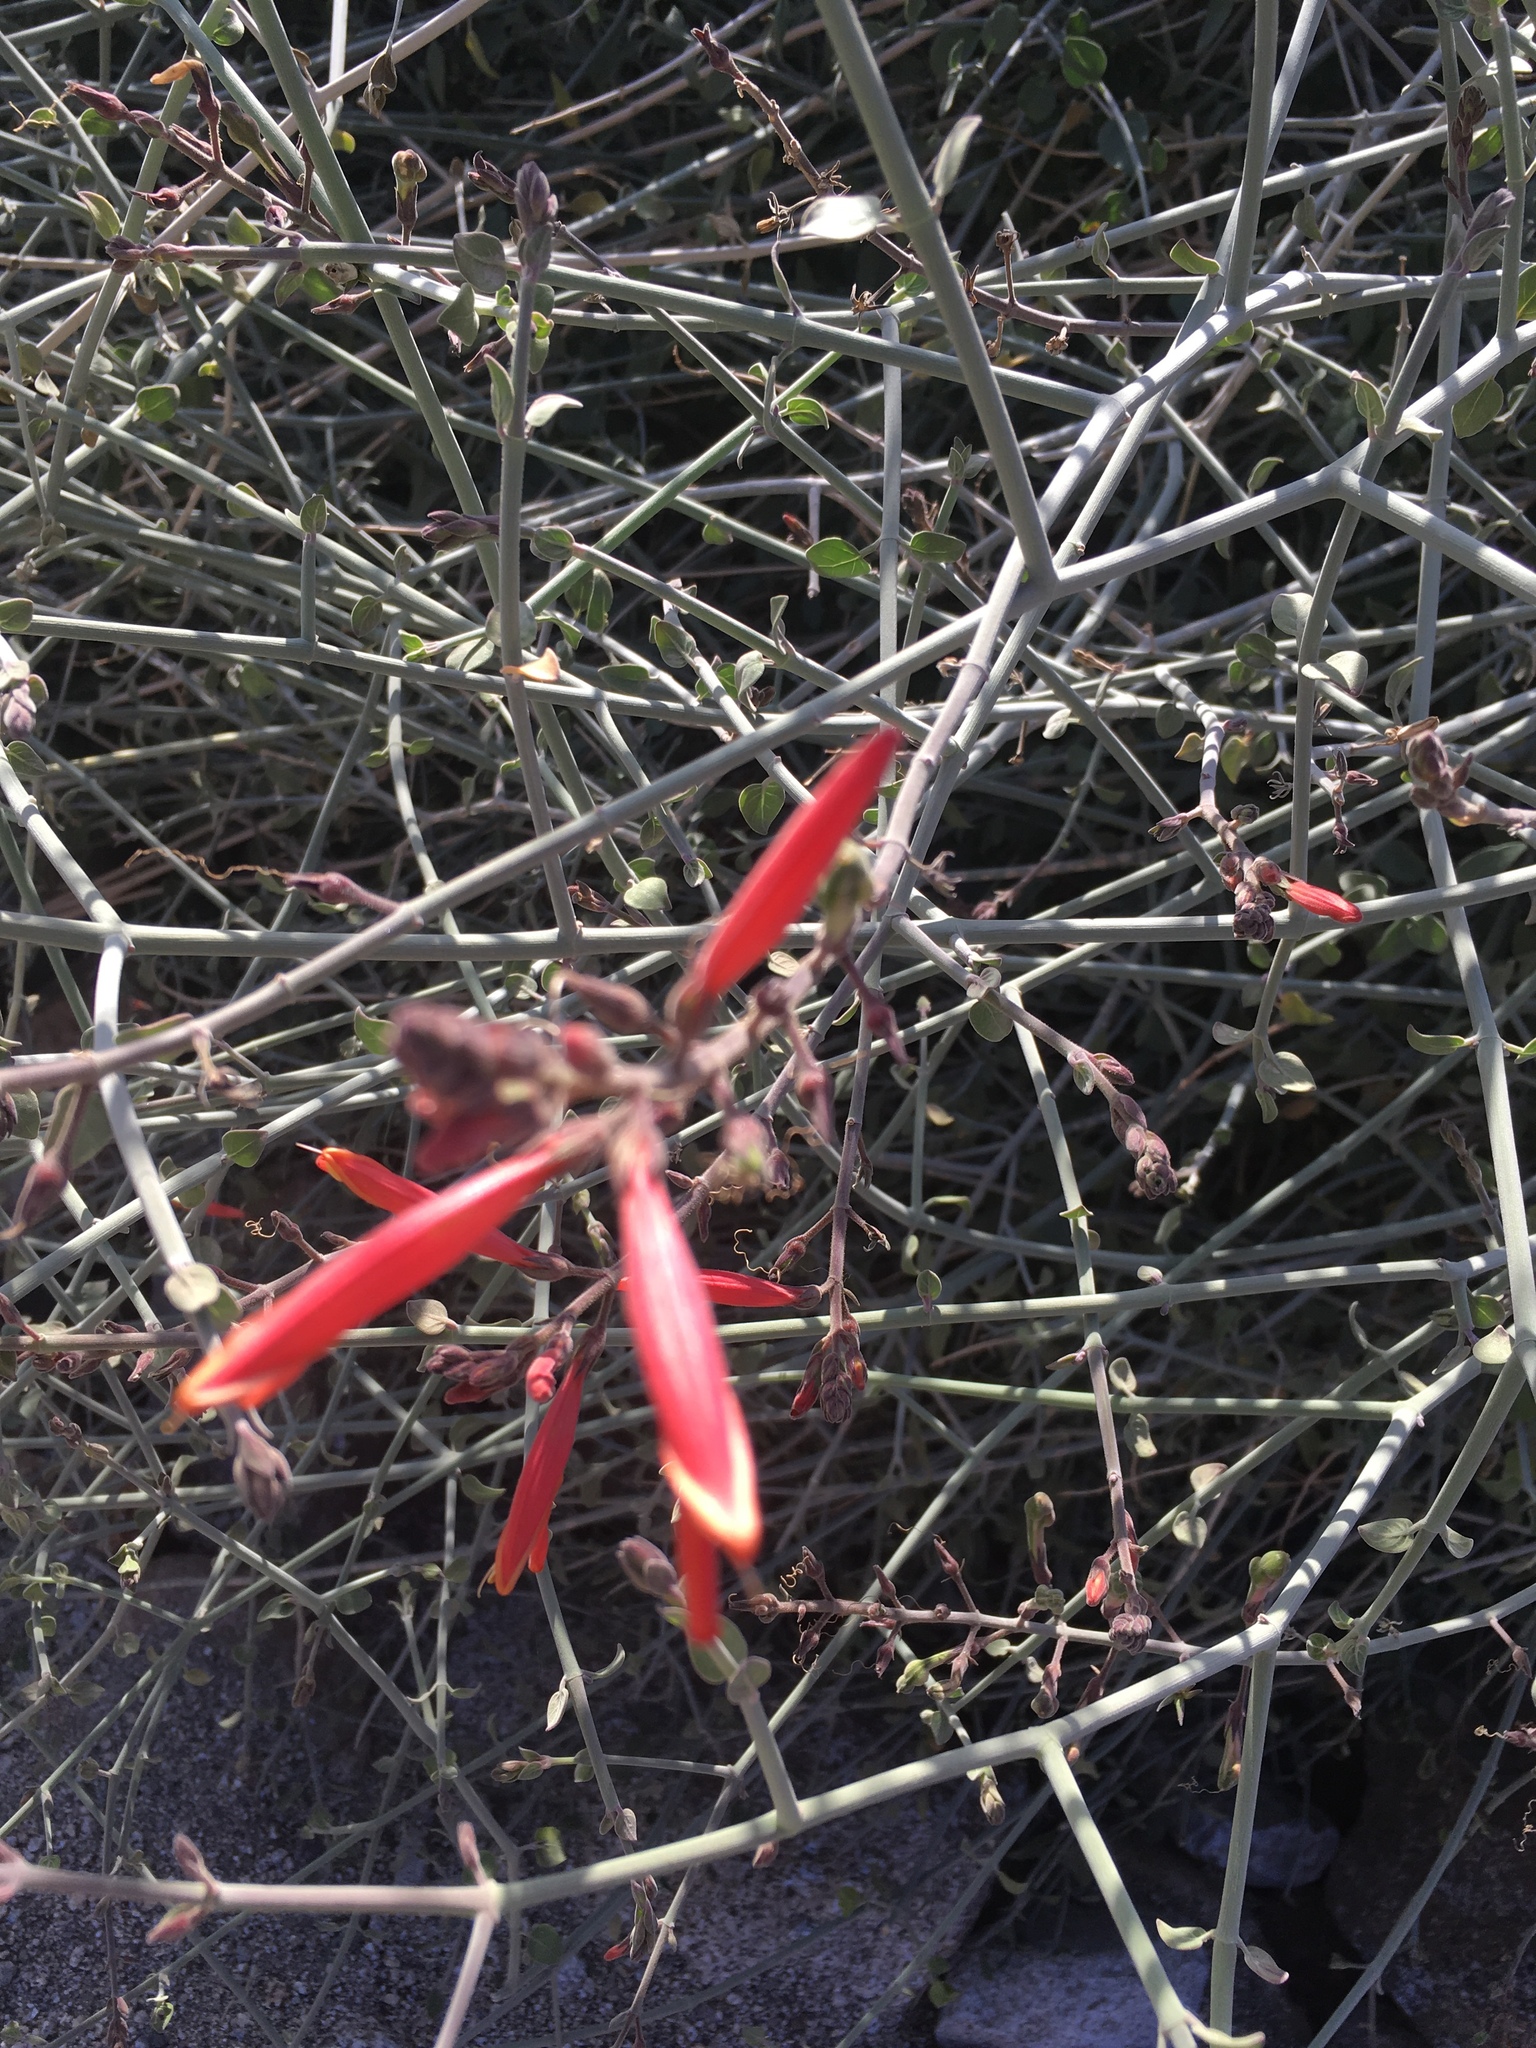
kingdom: Plantae
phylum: Tracheophyta
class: Magnoliopsida
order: Lamiales
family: Acanthaceae
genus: Justicia
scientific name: Justicia californica
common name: Chuparosa-honeysuckle
